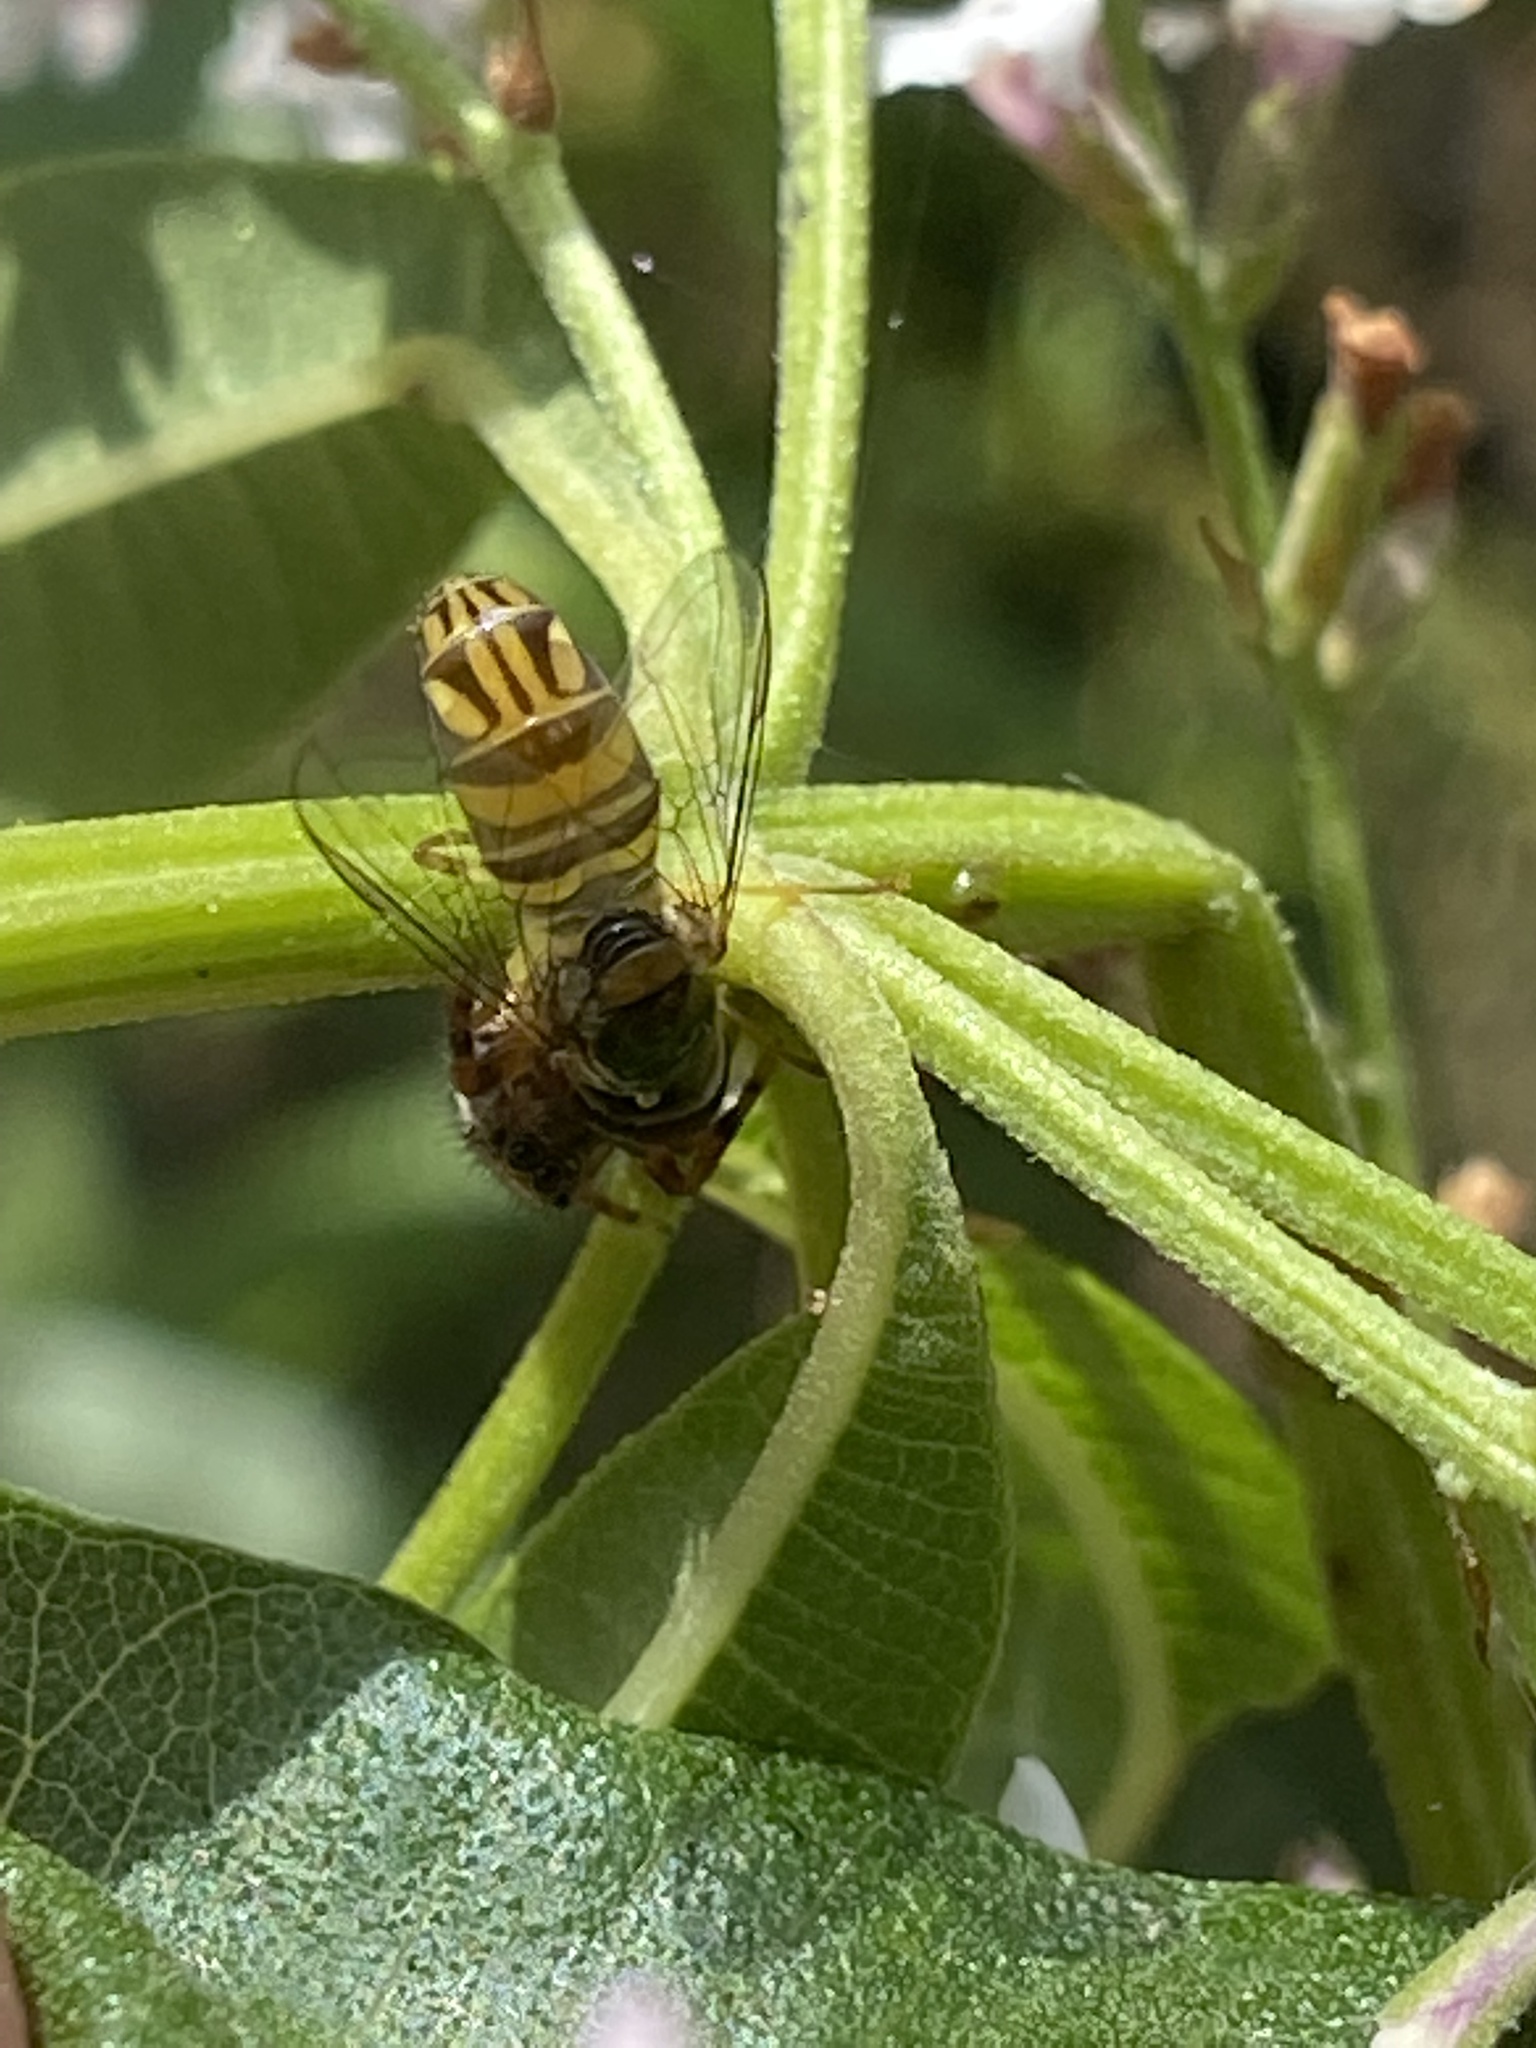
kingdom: Animalia
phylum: Arthropoda
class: Insecta
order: Diptera
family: Syrphidae
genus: Allograpta
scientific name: Allograpta obliqua
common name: Common oblique syrphid
